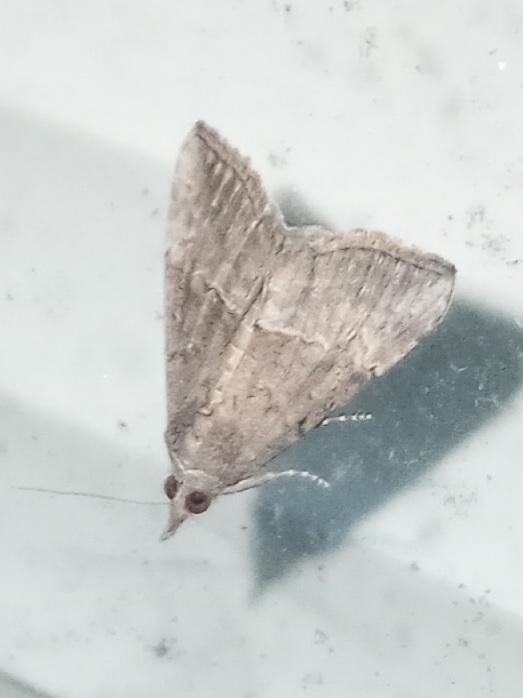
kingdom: Animalia
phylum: Arthropoda
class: Insecta
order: Lepidoptera
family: Erebidae
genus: Hypena
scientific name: Hypena scabra
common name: Green cloverworm
